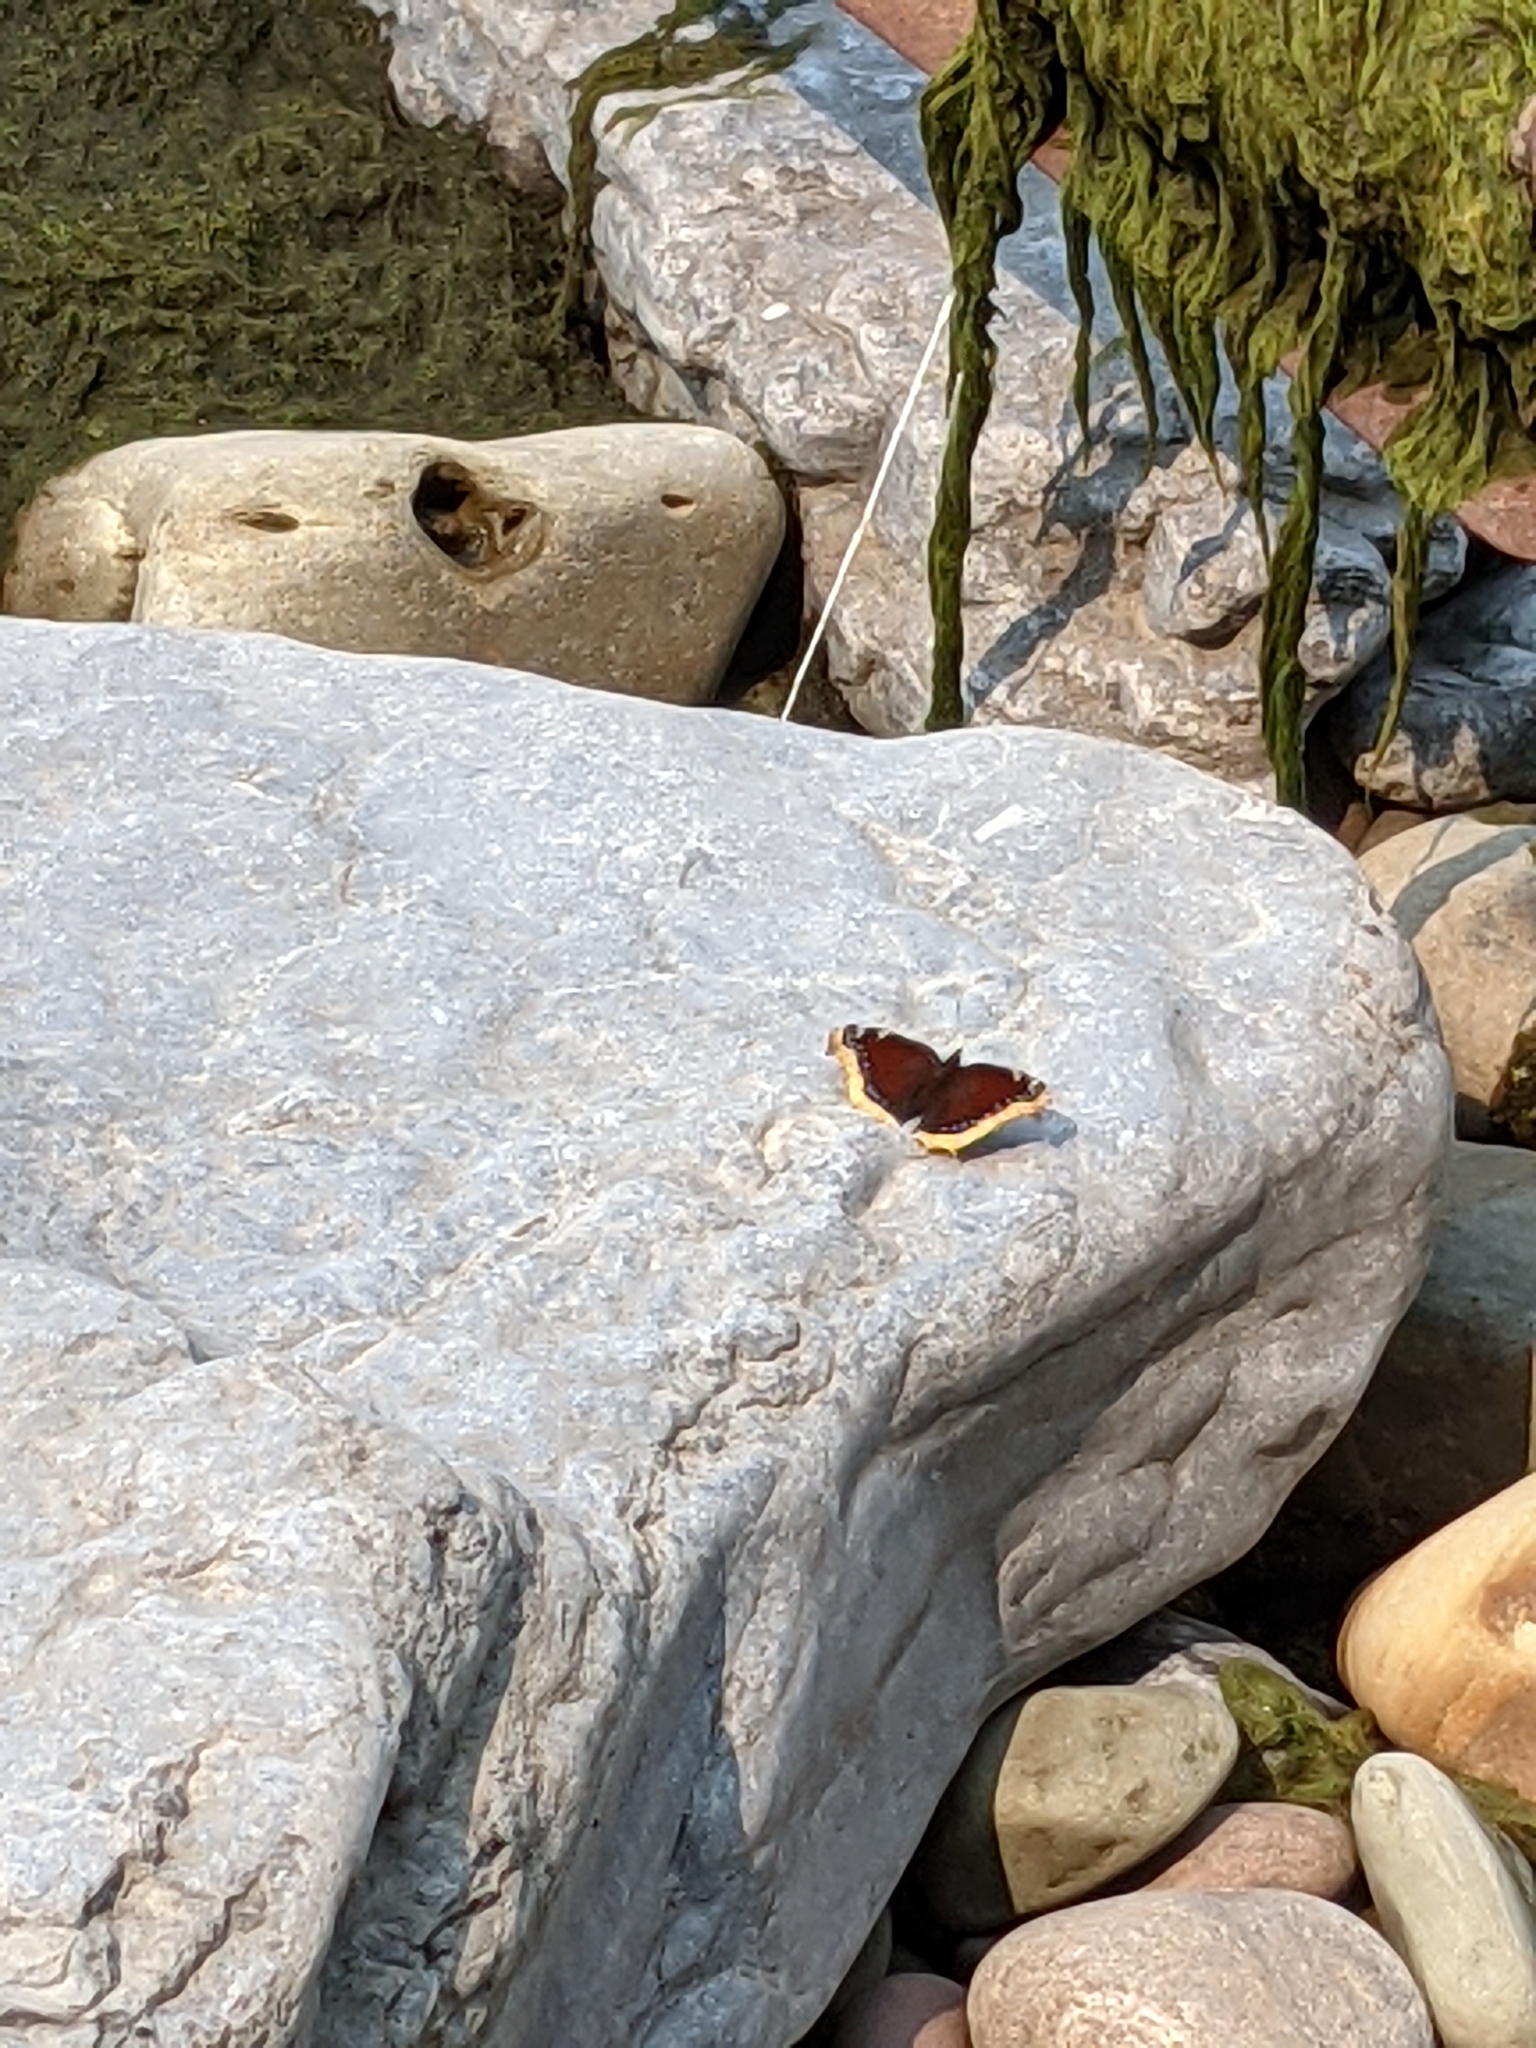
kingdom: Animalia
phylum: Arthropoda
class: Insecta
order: Lepidoptera
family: Nymphalidae
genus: Nymphalis
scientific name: Nymphalis antiopa
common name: Camberwell beauty
